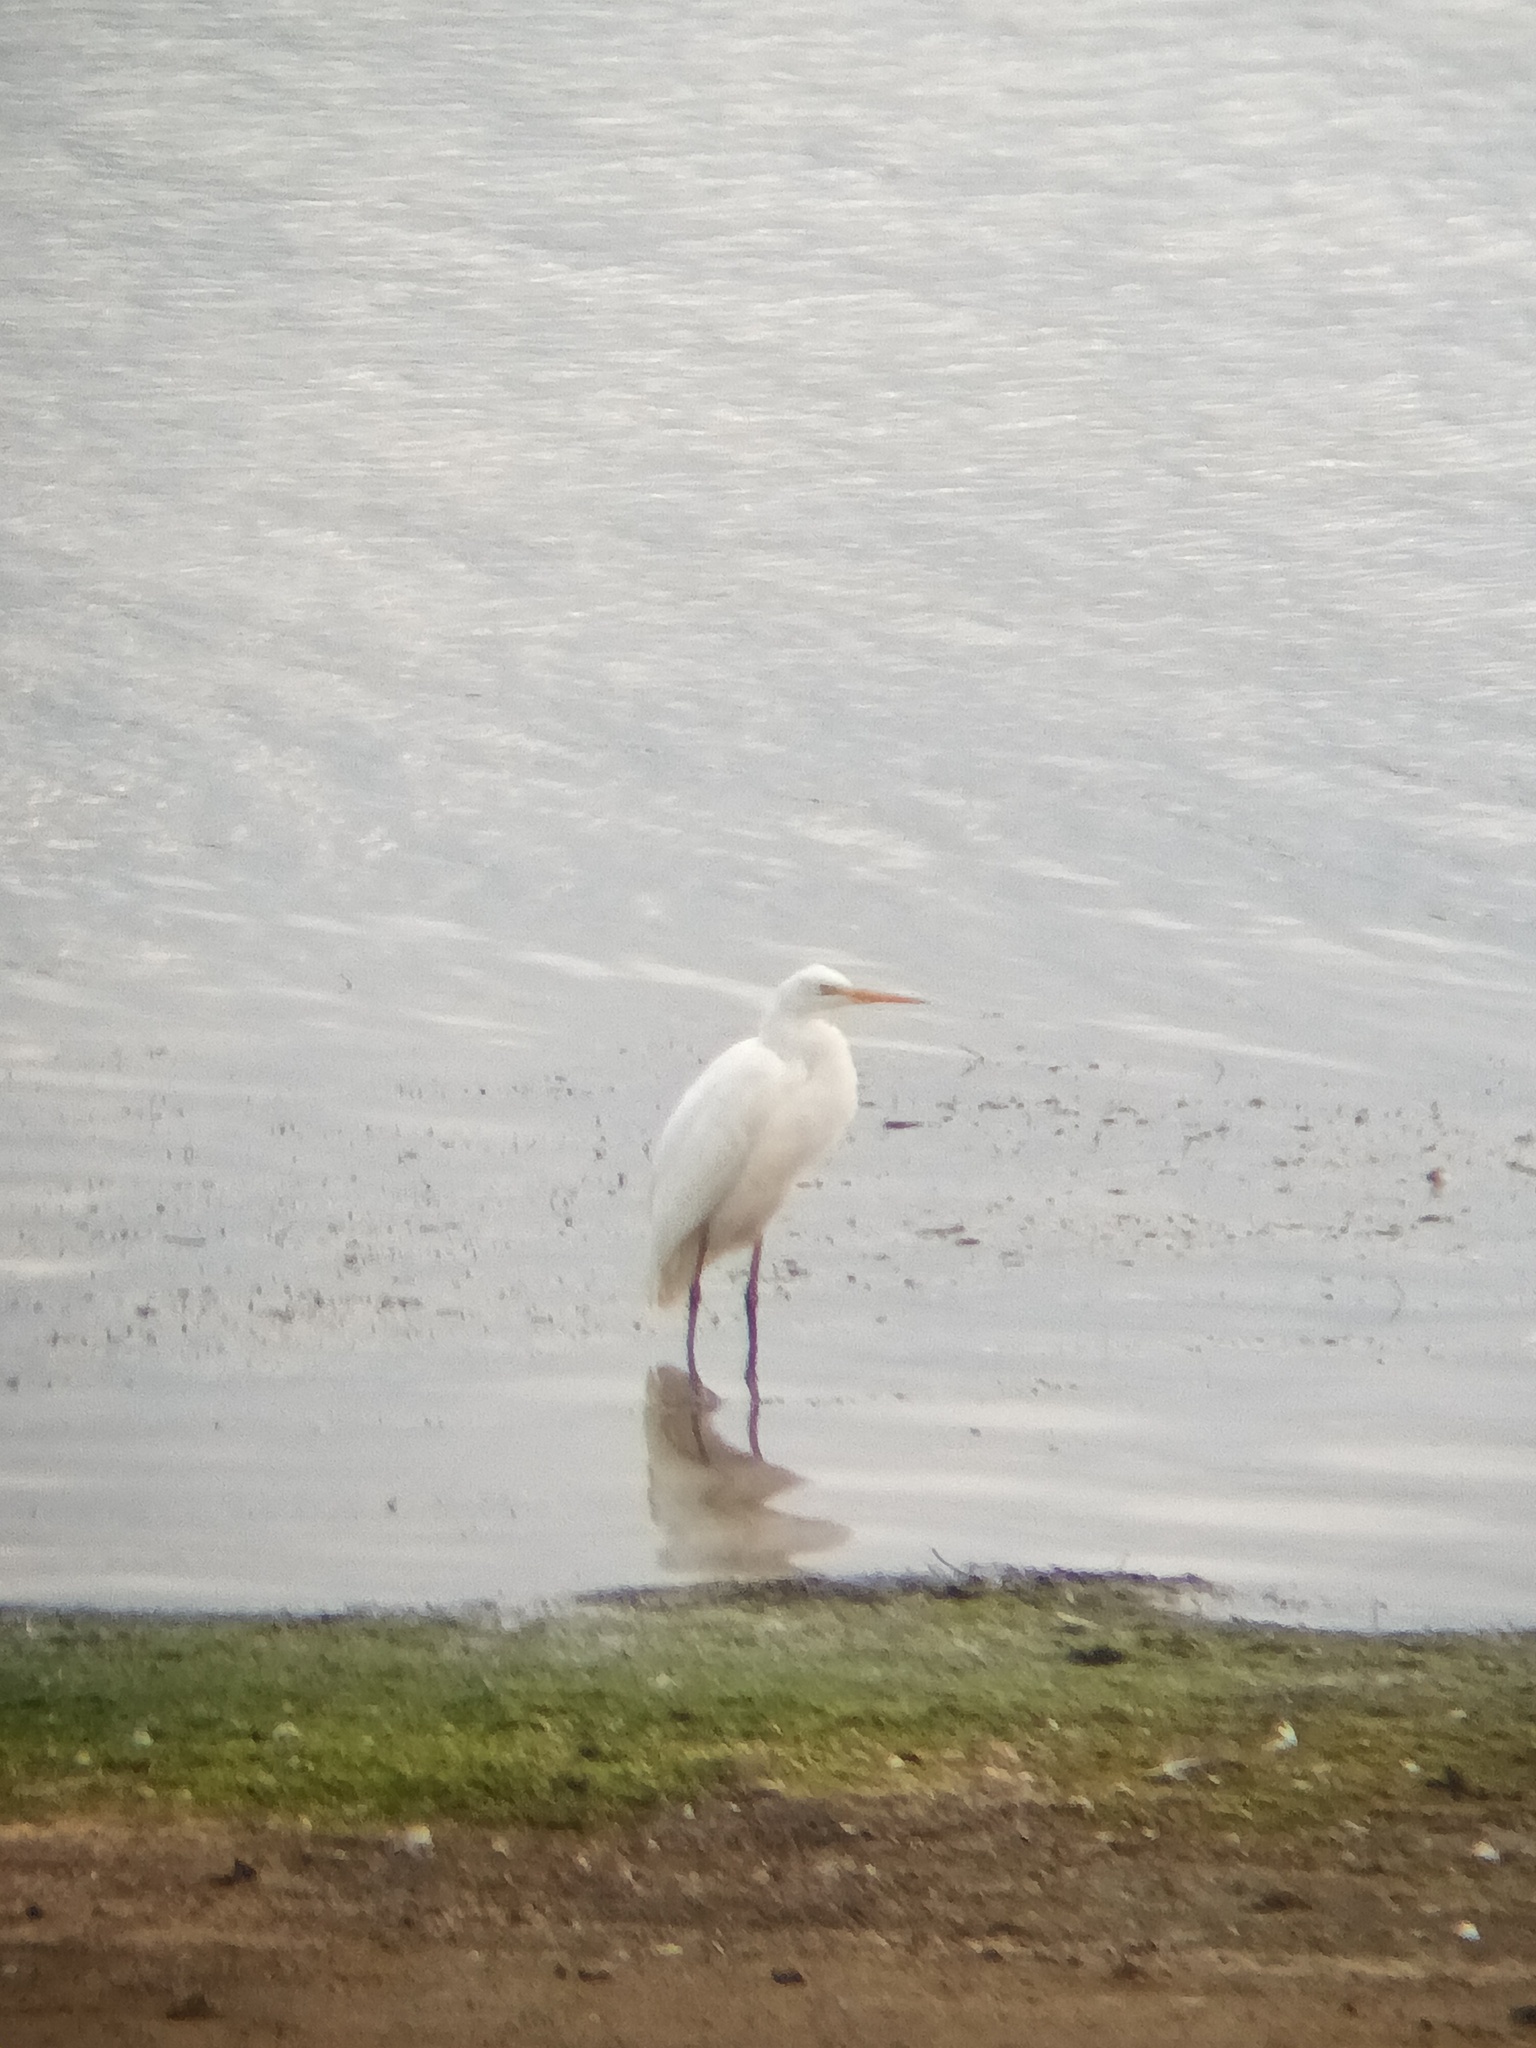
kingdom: Animalia
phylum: Chordata
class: Aves
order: Pelecaniformes
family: Ardeidae
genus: Ardea
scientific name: Ardea alba
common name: Great egret
